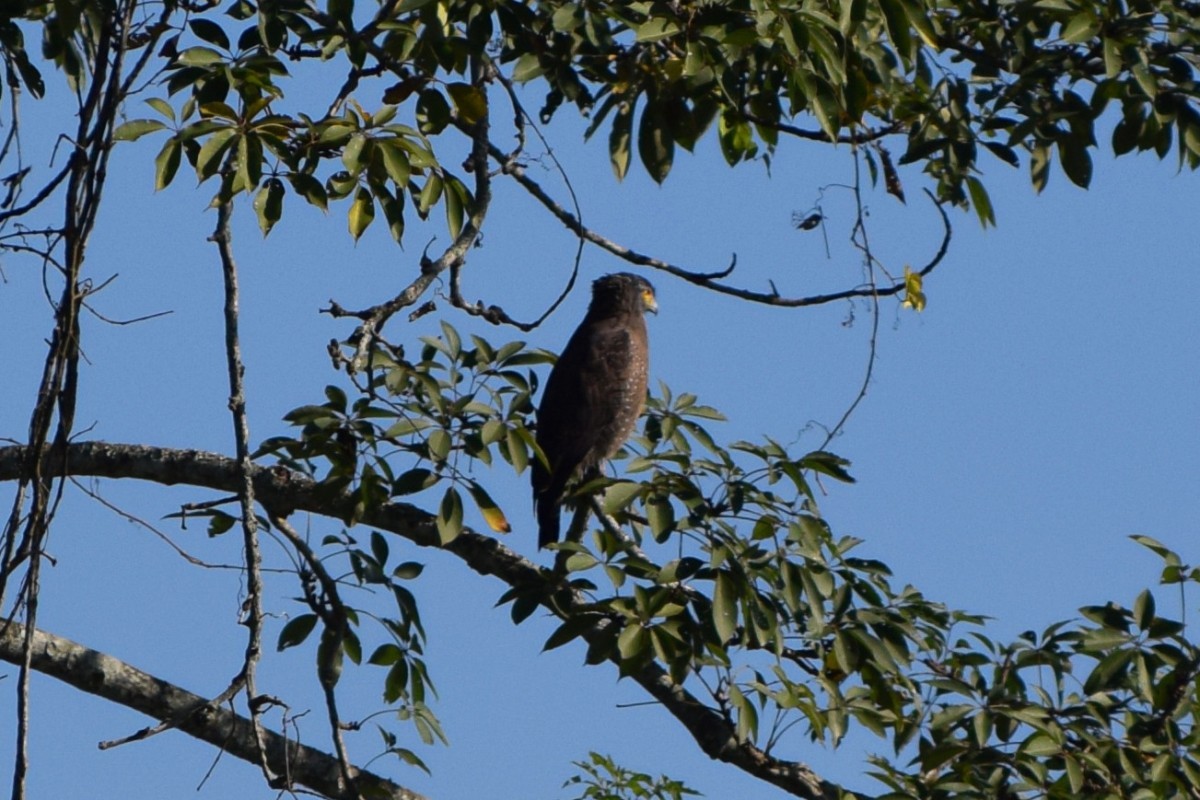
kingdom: Animalia
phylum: Chordata
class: Aves
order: Accipitriformes
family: Accipitridae
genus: Spilornis
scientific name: Spilornis cheela
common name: Crested serpent eagle
